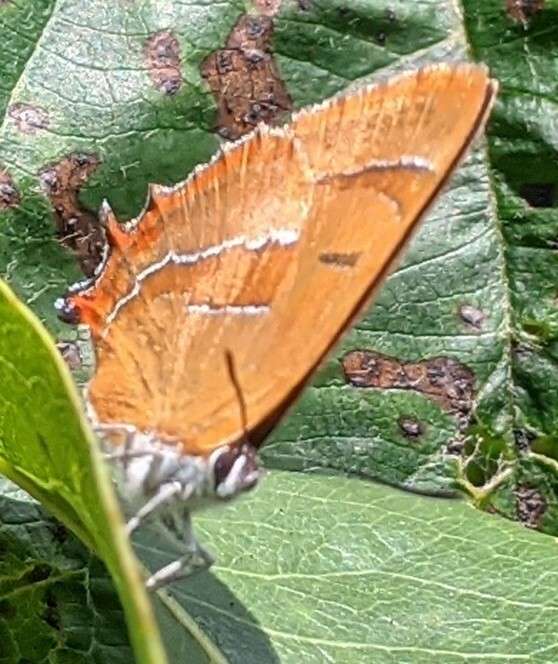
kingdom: Animalia
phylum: Arthropoda
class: Insecta
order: Lepidoptera
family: Lycaenidae
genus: Thecla
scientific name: Thecla betulae
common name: Brown hairstreak
